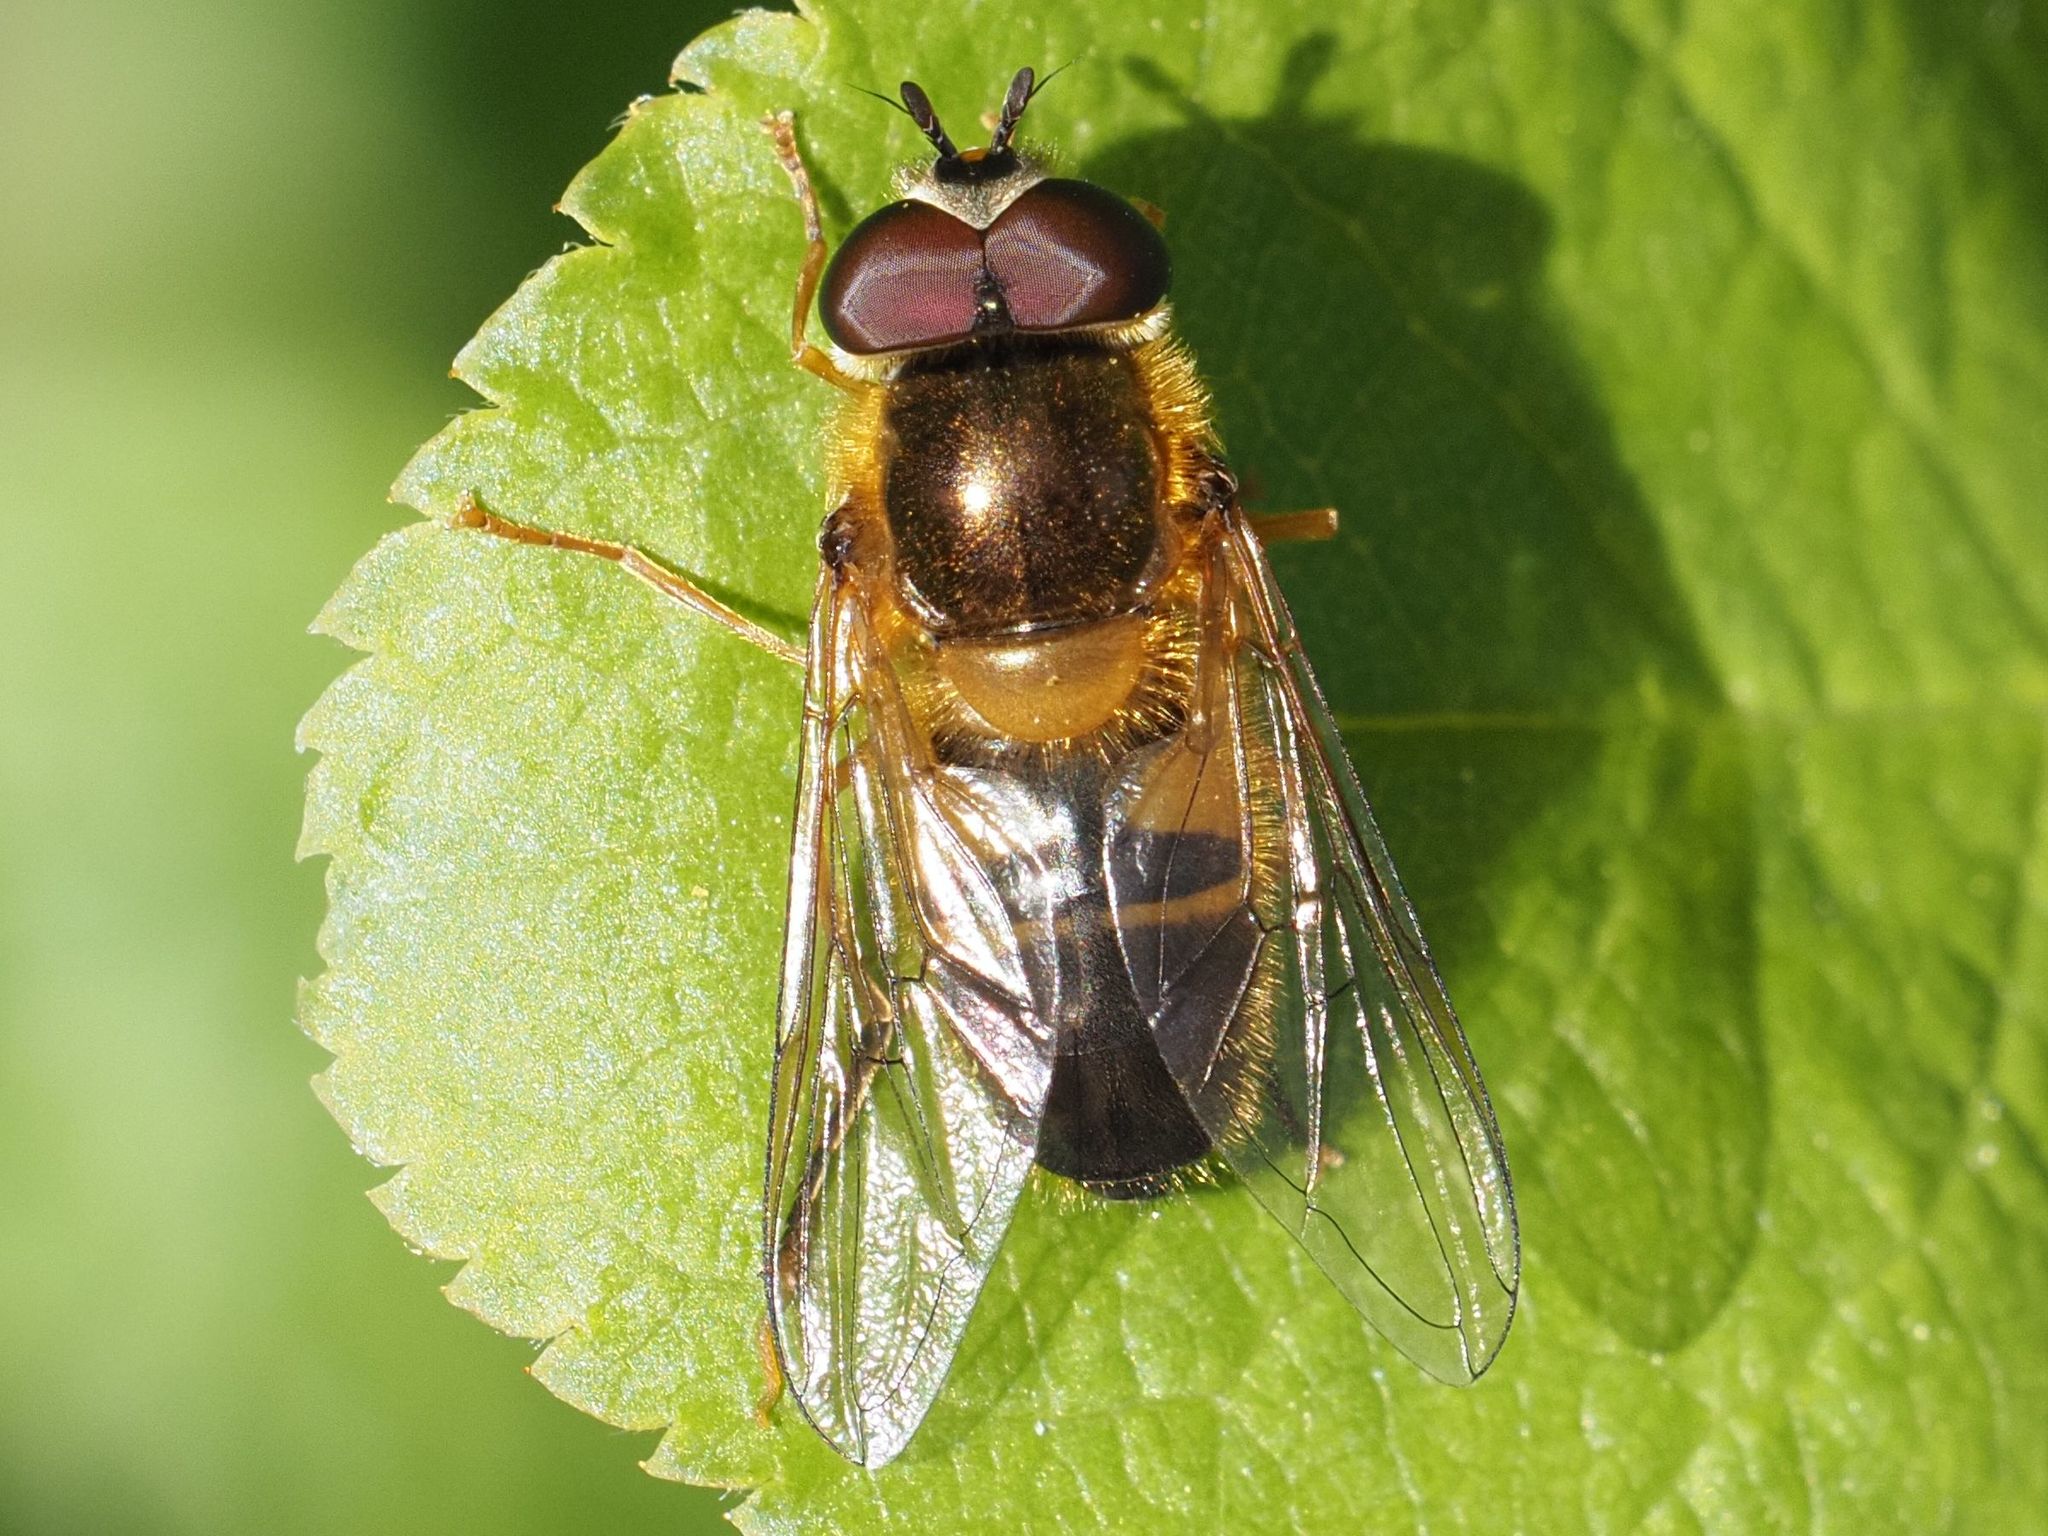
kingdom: Animalia
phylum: Arthropoda
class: Insecta
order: Diptera
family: Syrphidae
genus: Epistrophe
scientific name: Epistrophe eligans
